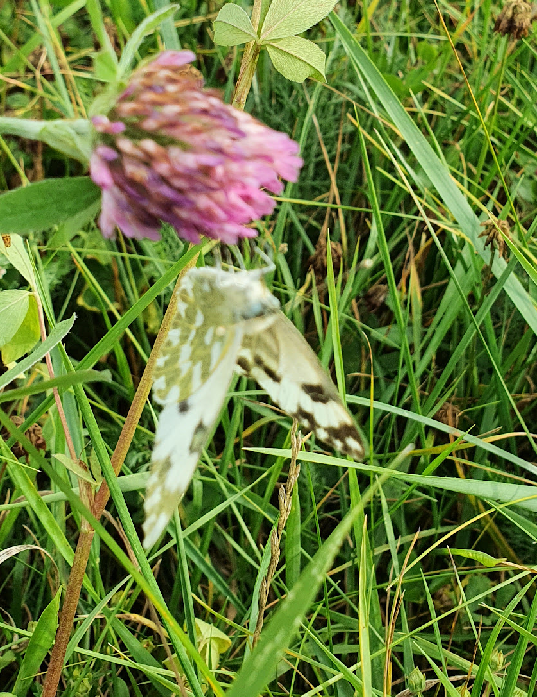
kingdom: Animalia
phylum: Arthropoda
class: Insecta
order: Lepidoptera
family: Pieridae
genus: Pontia
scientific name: Pontia edusa
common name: Eastern bath white
